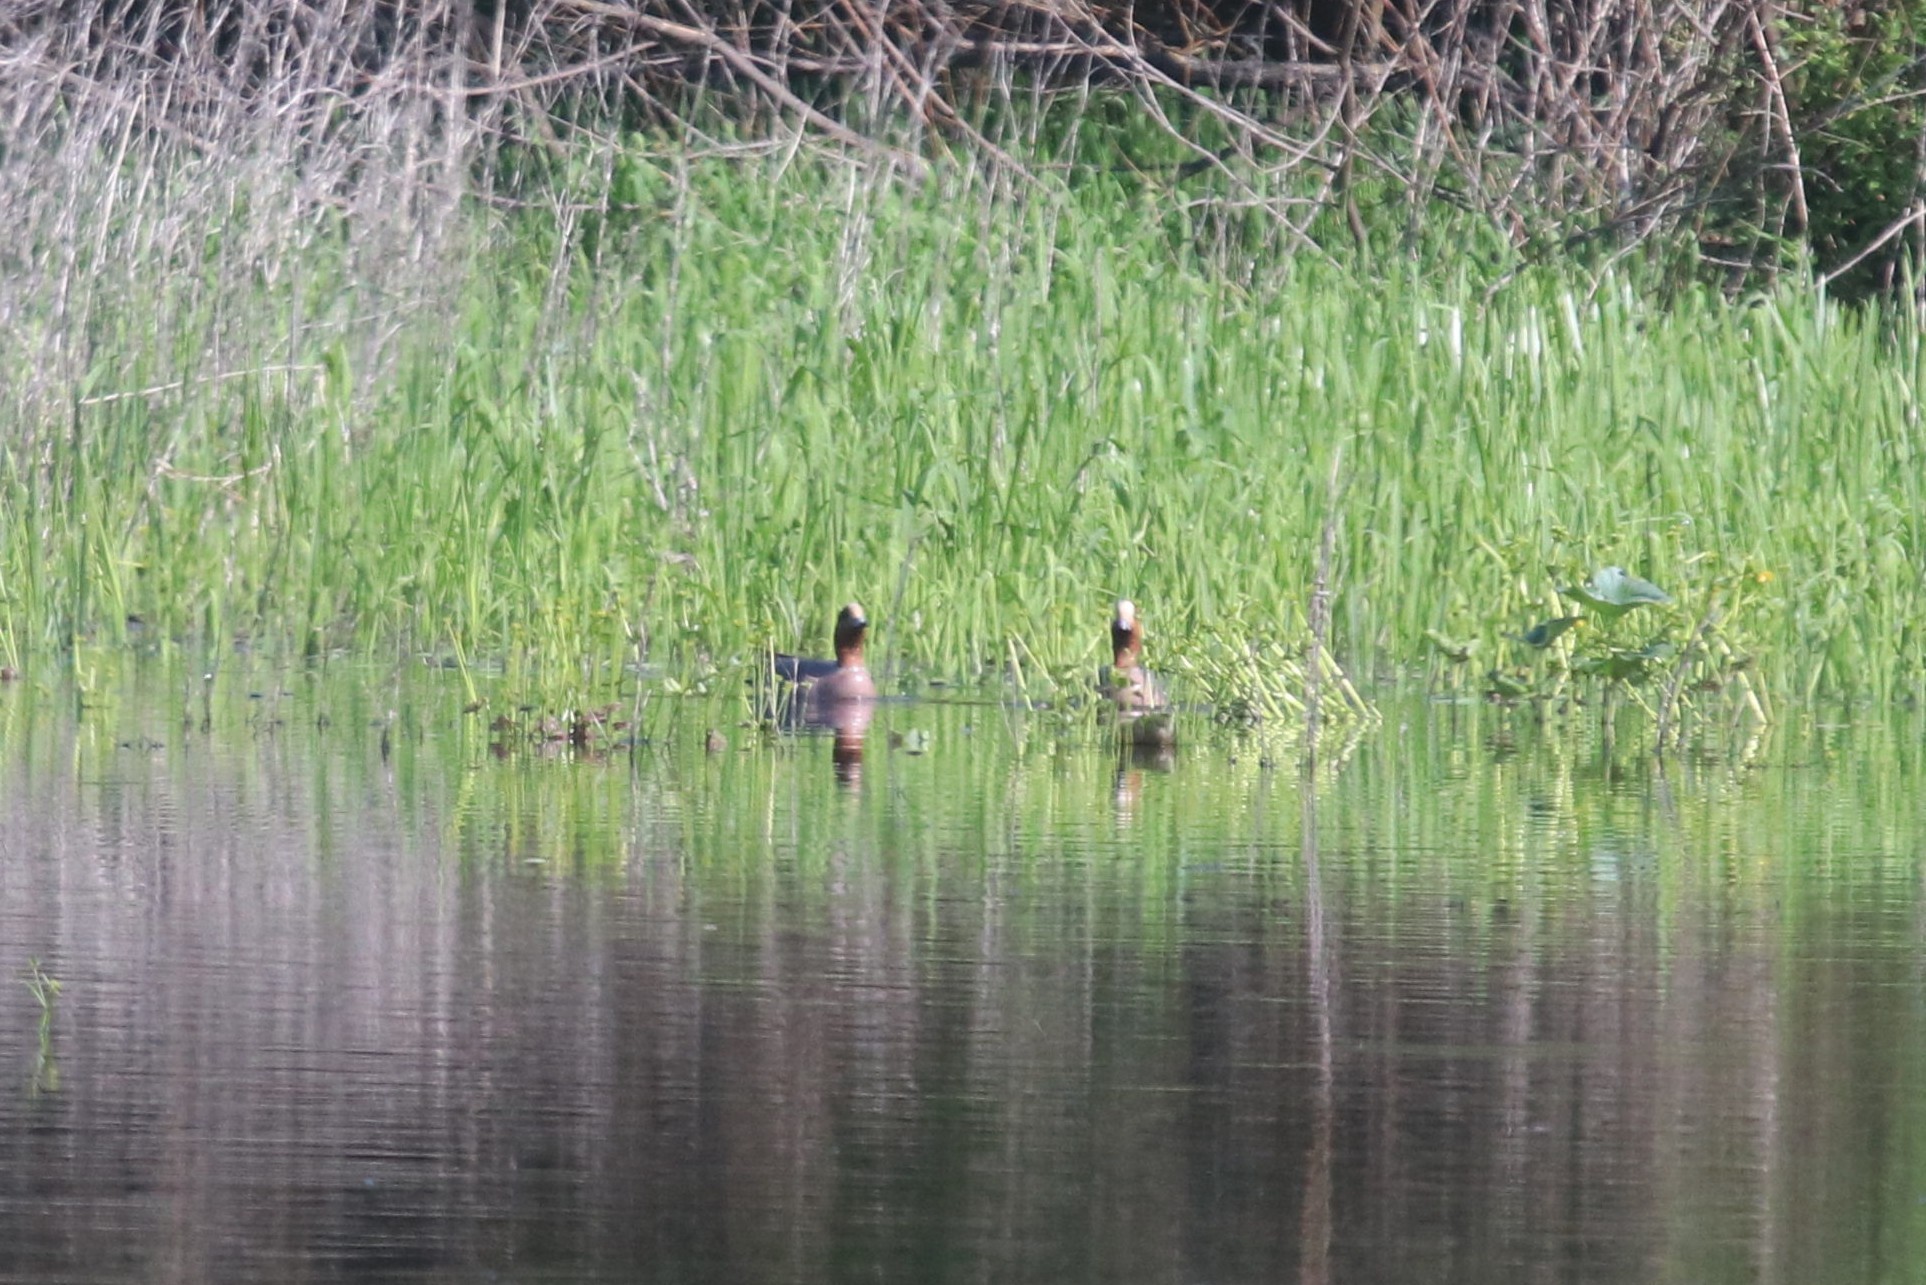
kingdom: Animalia
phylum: Chordata
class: Aves
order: Anseriformes
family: Anatidae
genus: Mareca
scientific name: Mareca penelope
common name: Eurasian wigeon
